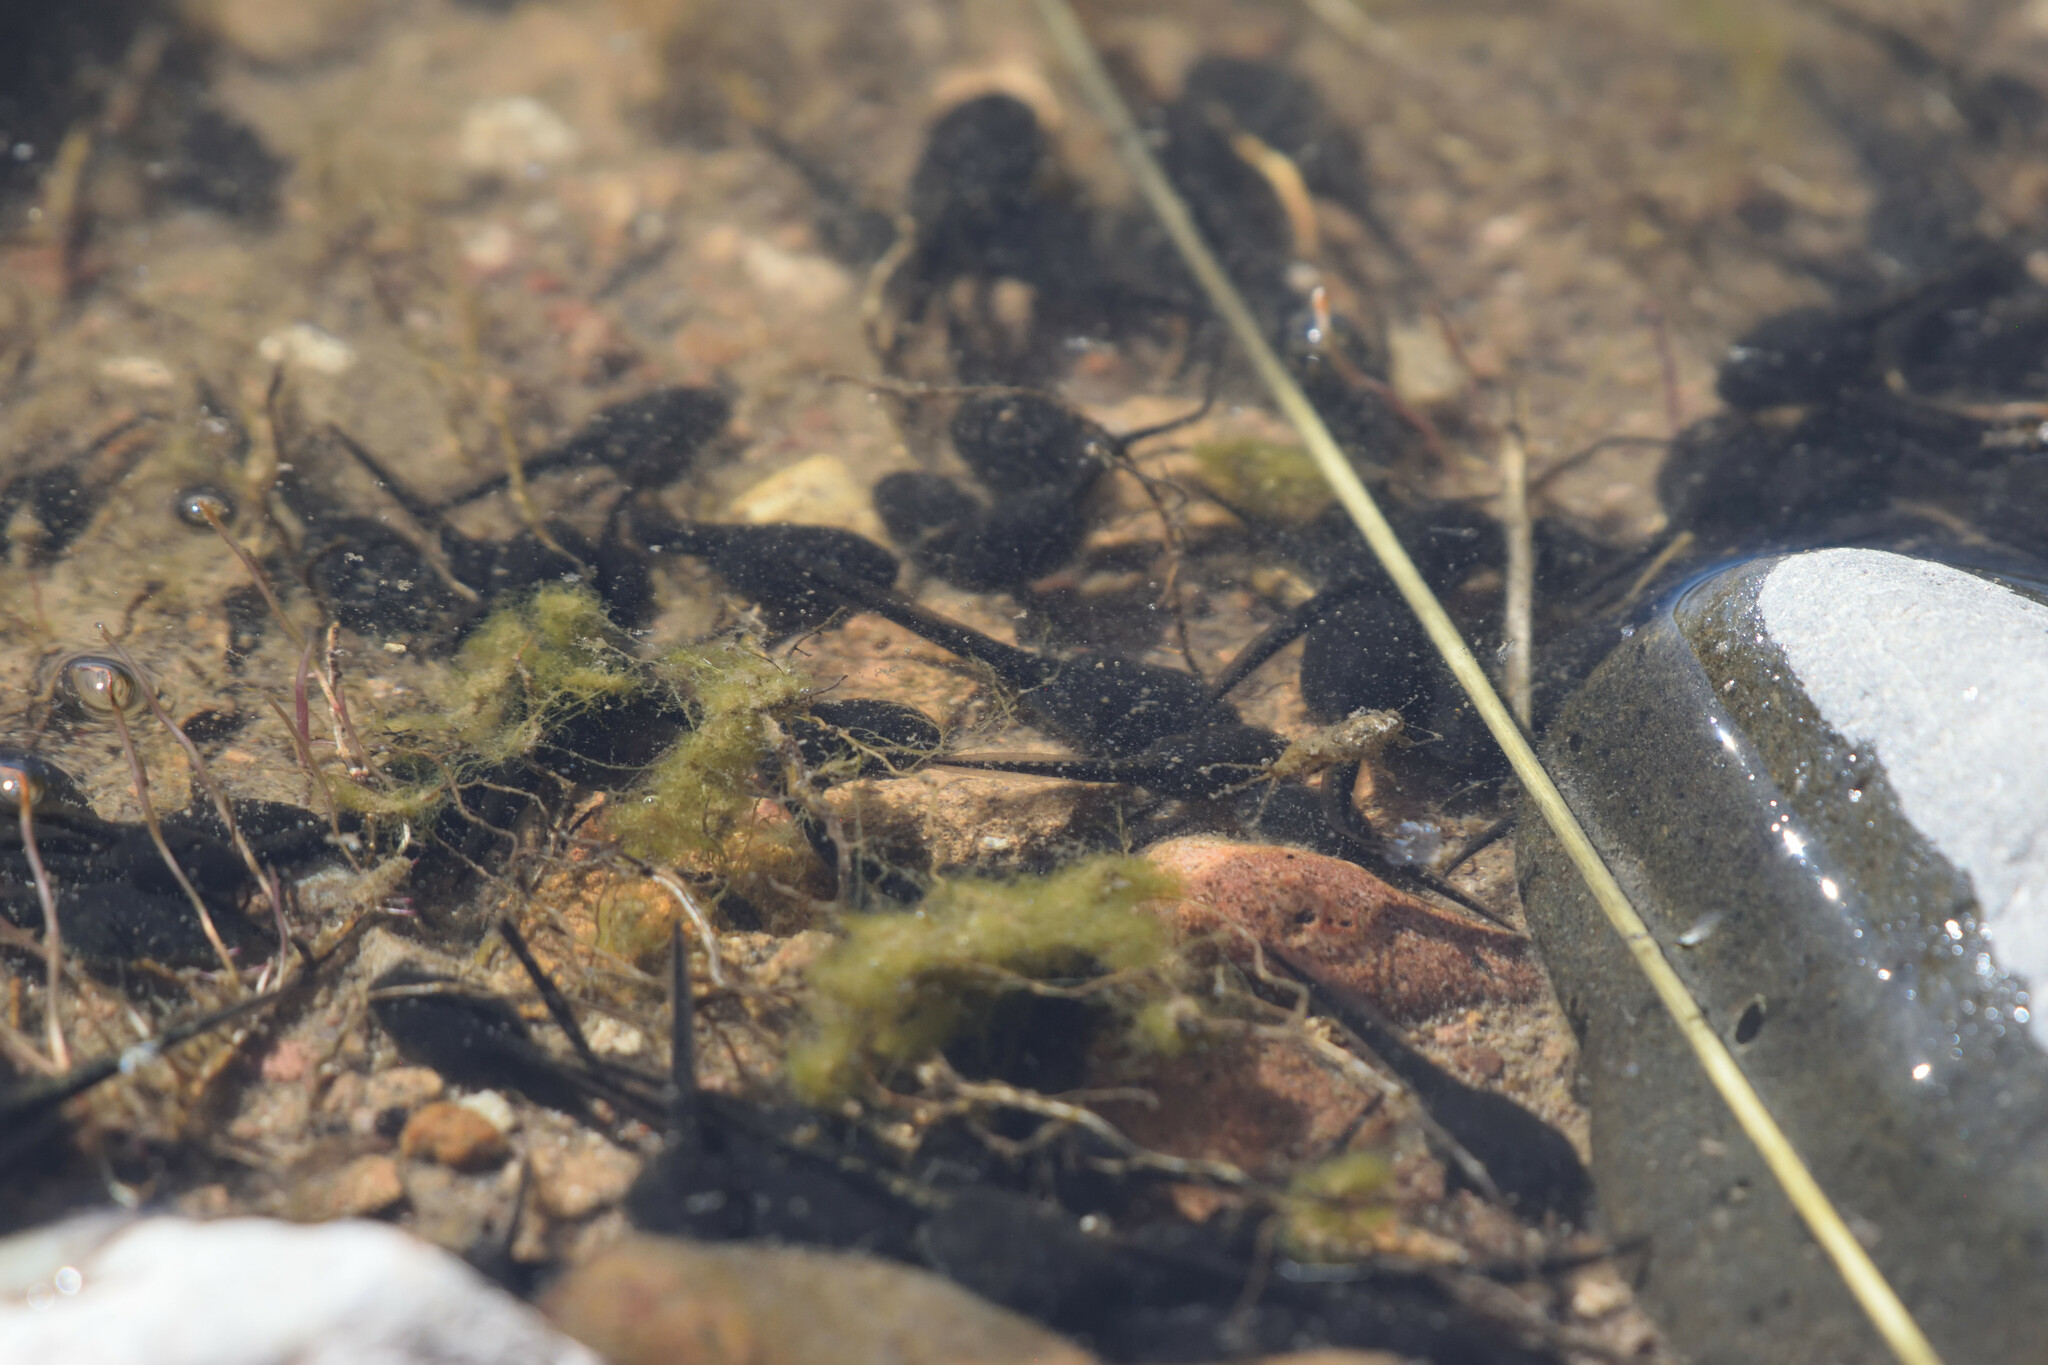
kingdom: Animalia
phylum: Chordata
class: Amphibia
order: Anura
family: Bufonidae
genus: Anaxyrus
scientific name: Anaxyrus punctatus
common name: Red-spotted toad
